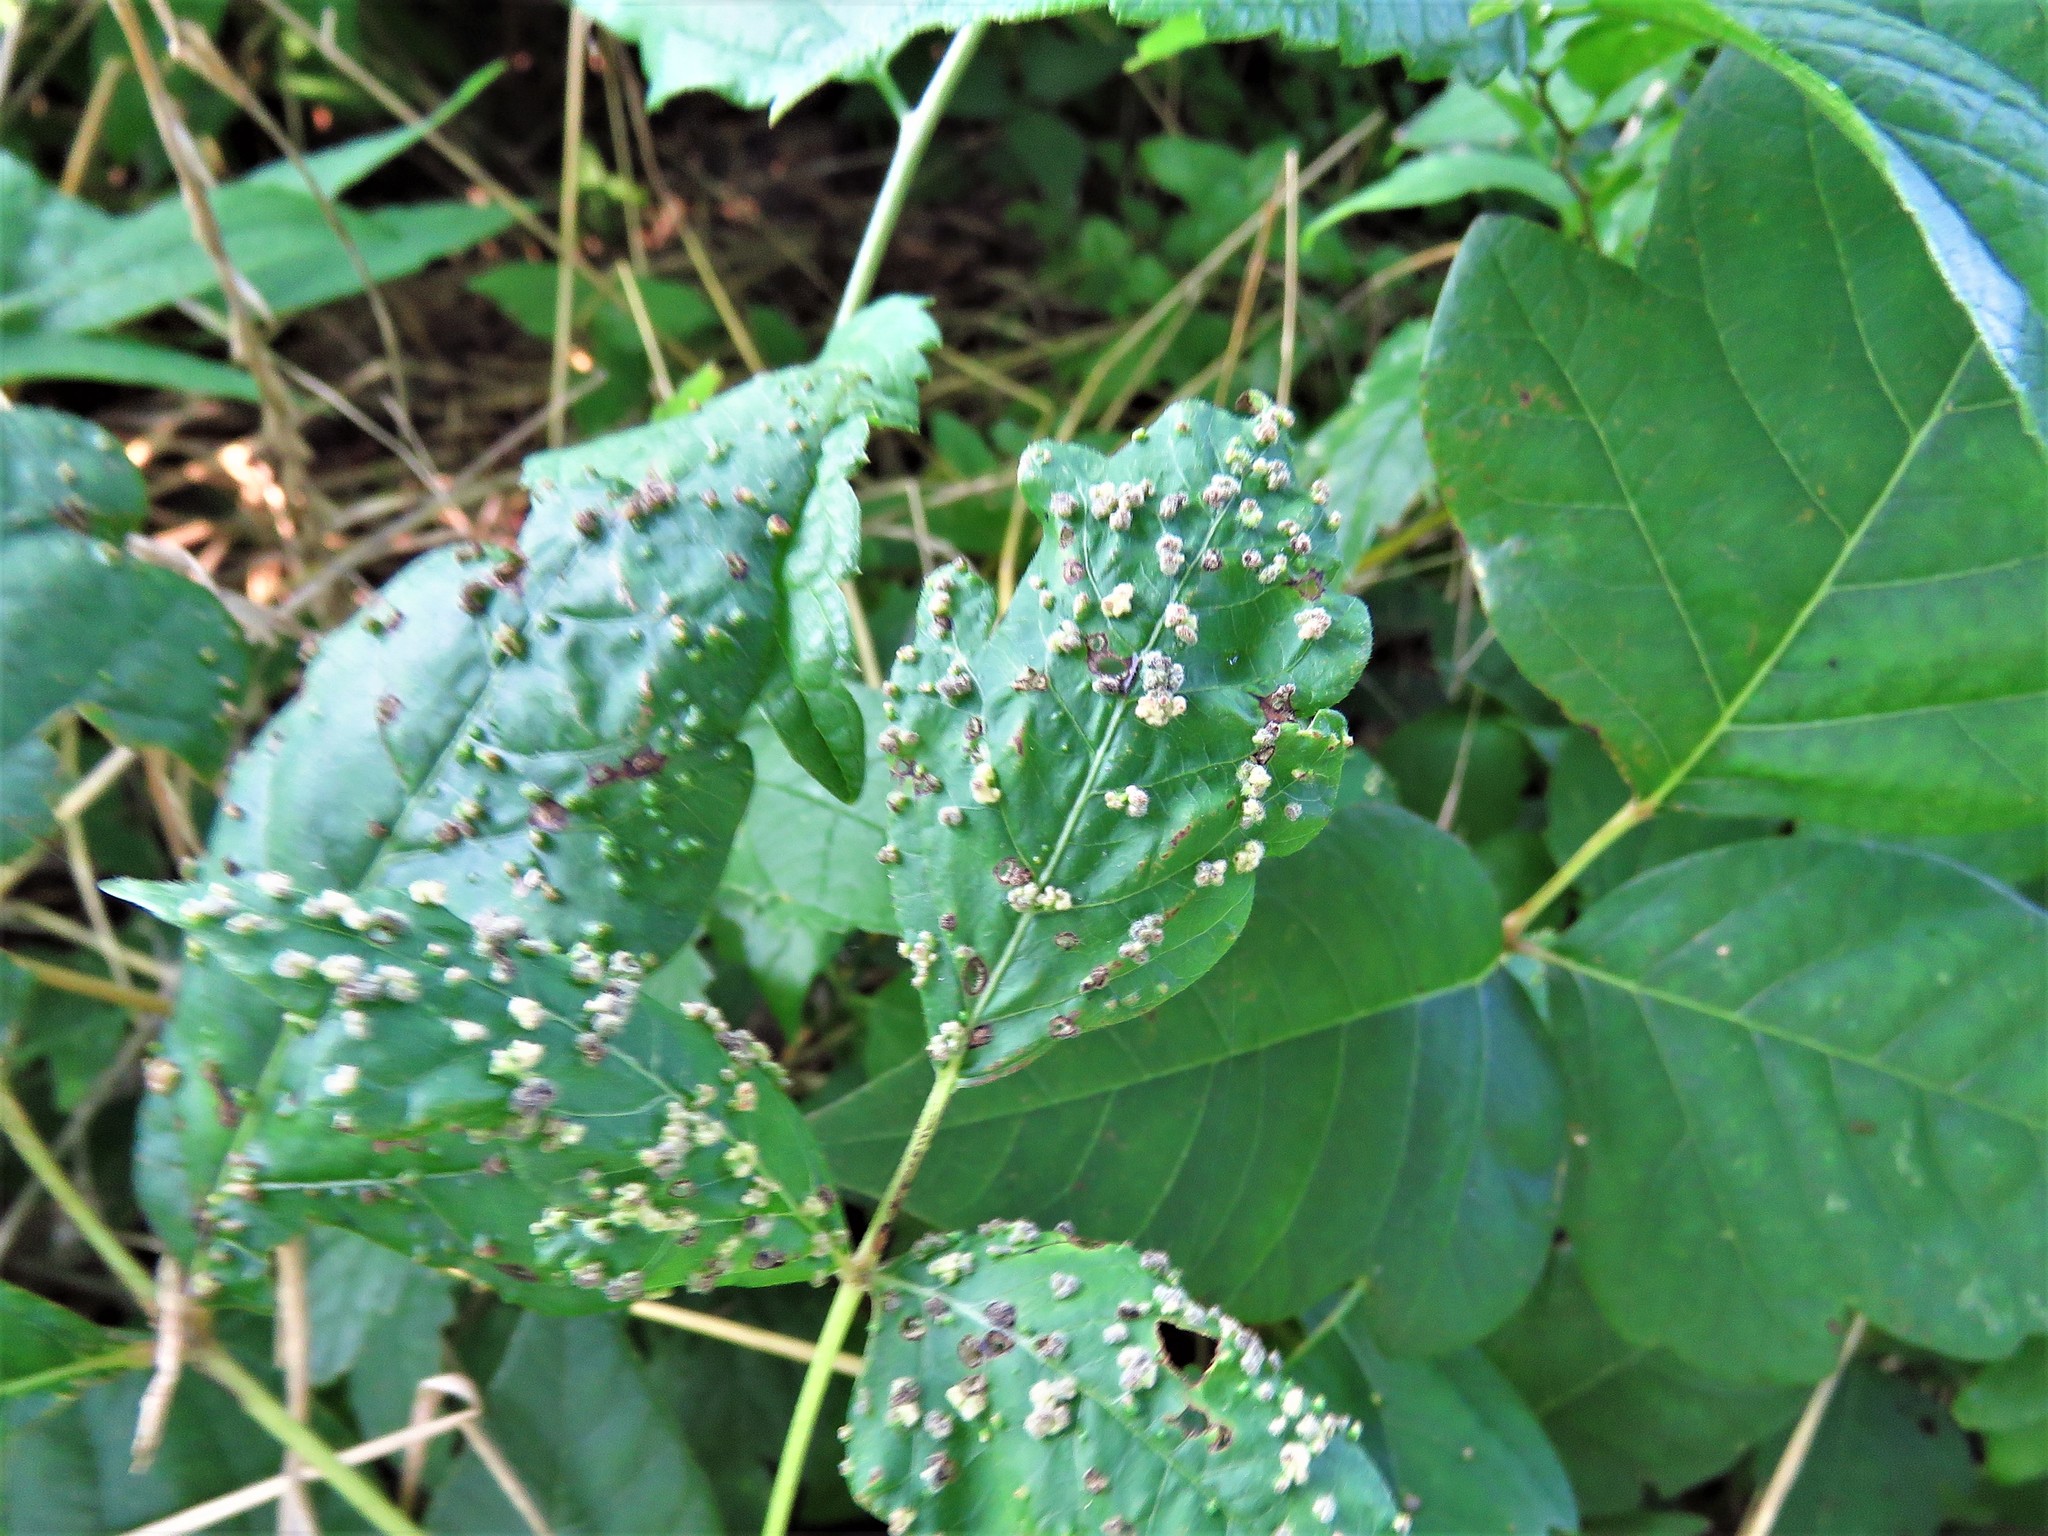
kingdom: Animalia
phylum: Arthropoda
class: Arachnida
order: Trombidiformes
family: Eriophyidae
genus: Aculops
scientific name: Aculops
